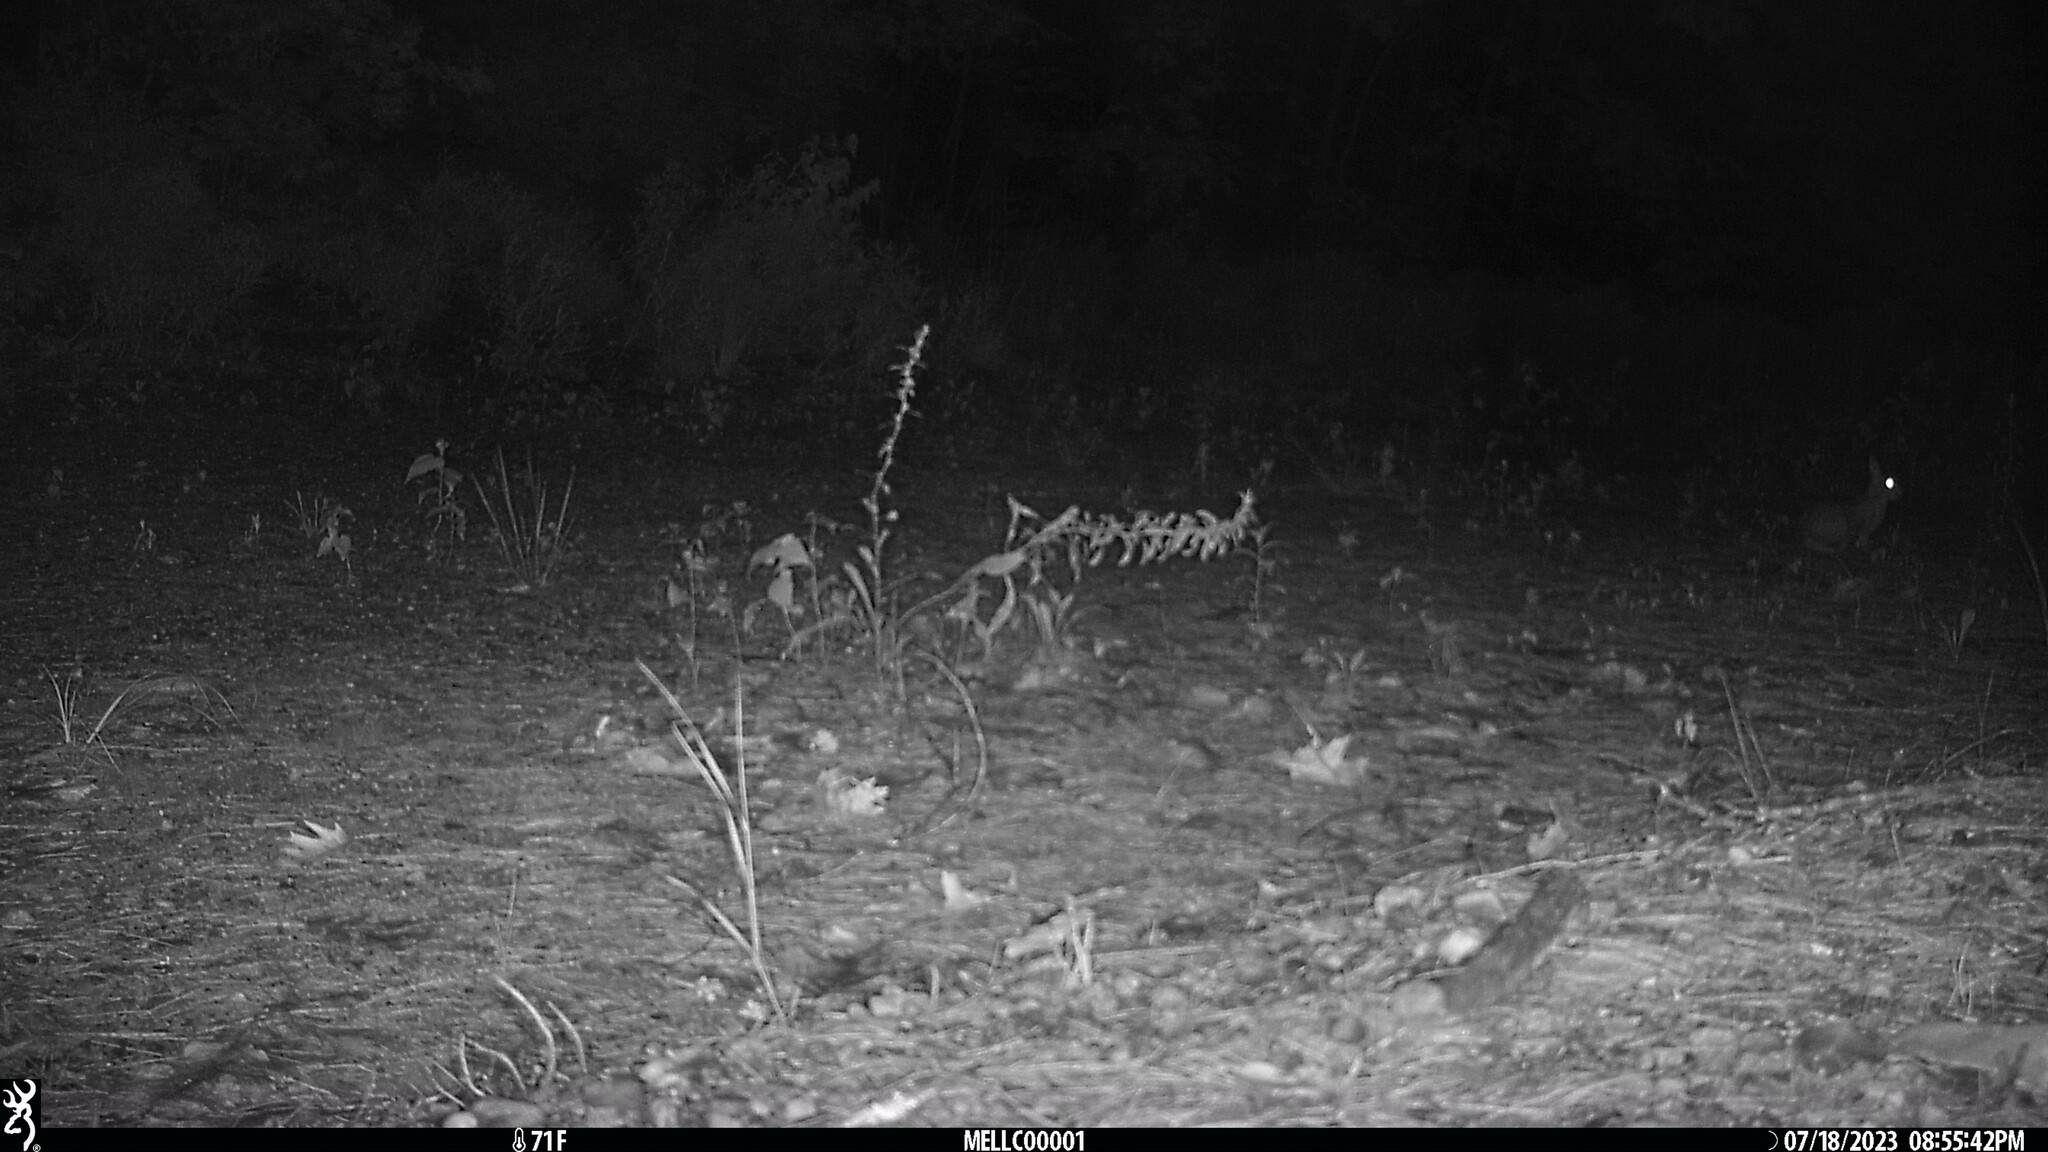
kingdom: Animalia
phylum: Chordata
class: Mammalia
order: Lagomorpha
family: Leporidae
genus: Sylvilagus
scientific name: Sylvilagus floridanus
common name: Eastern cottontail
